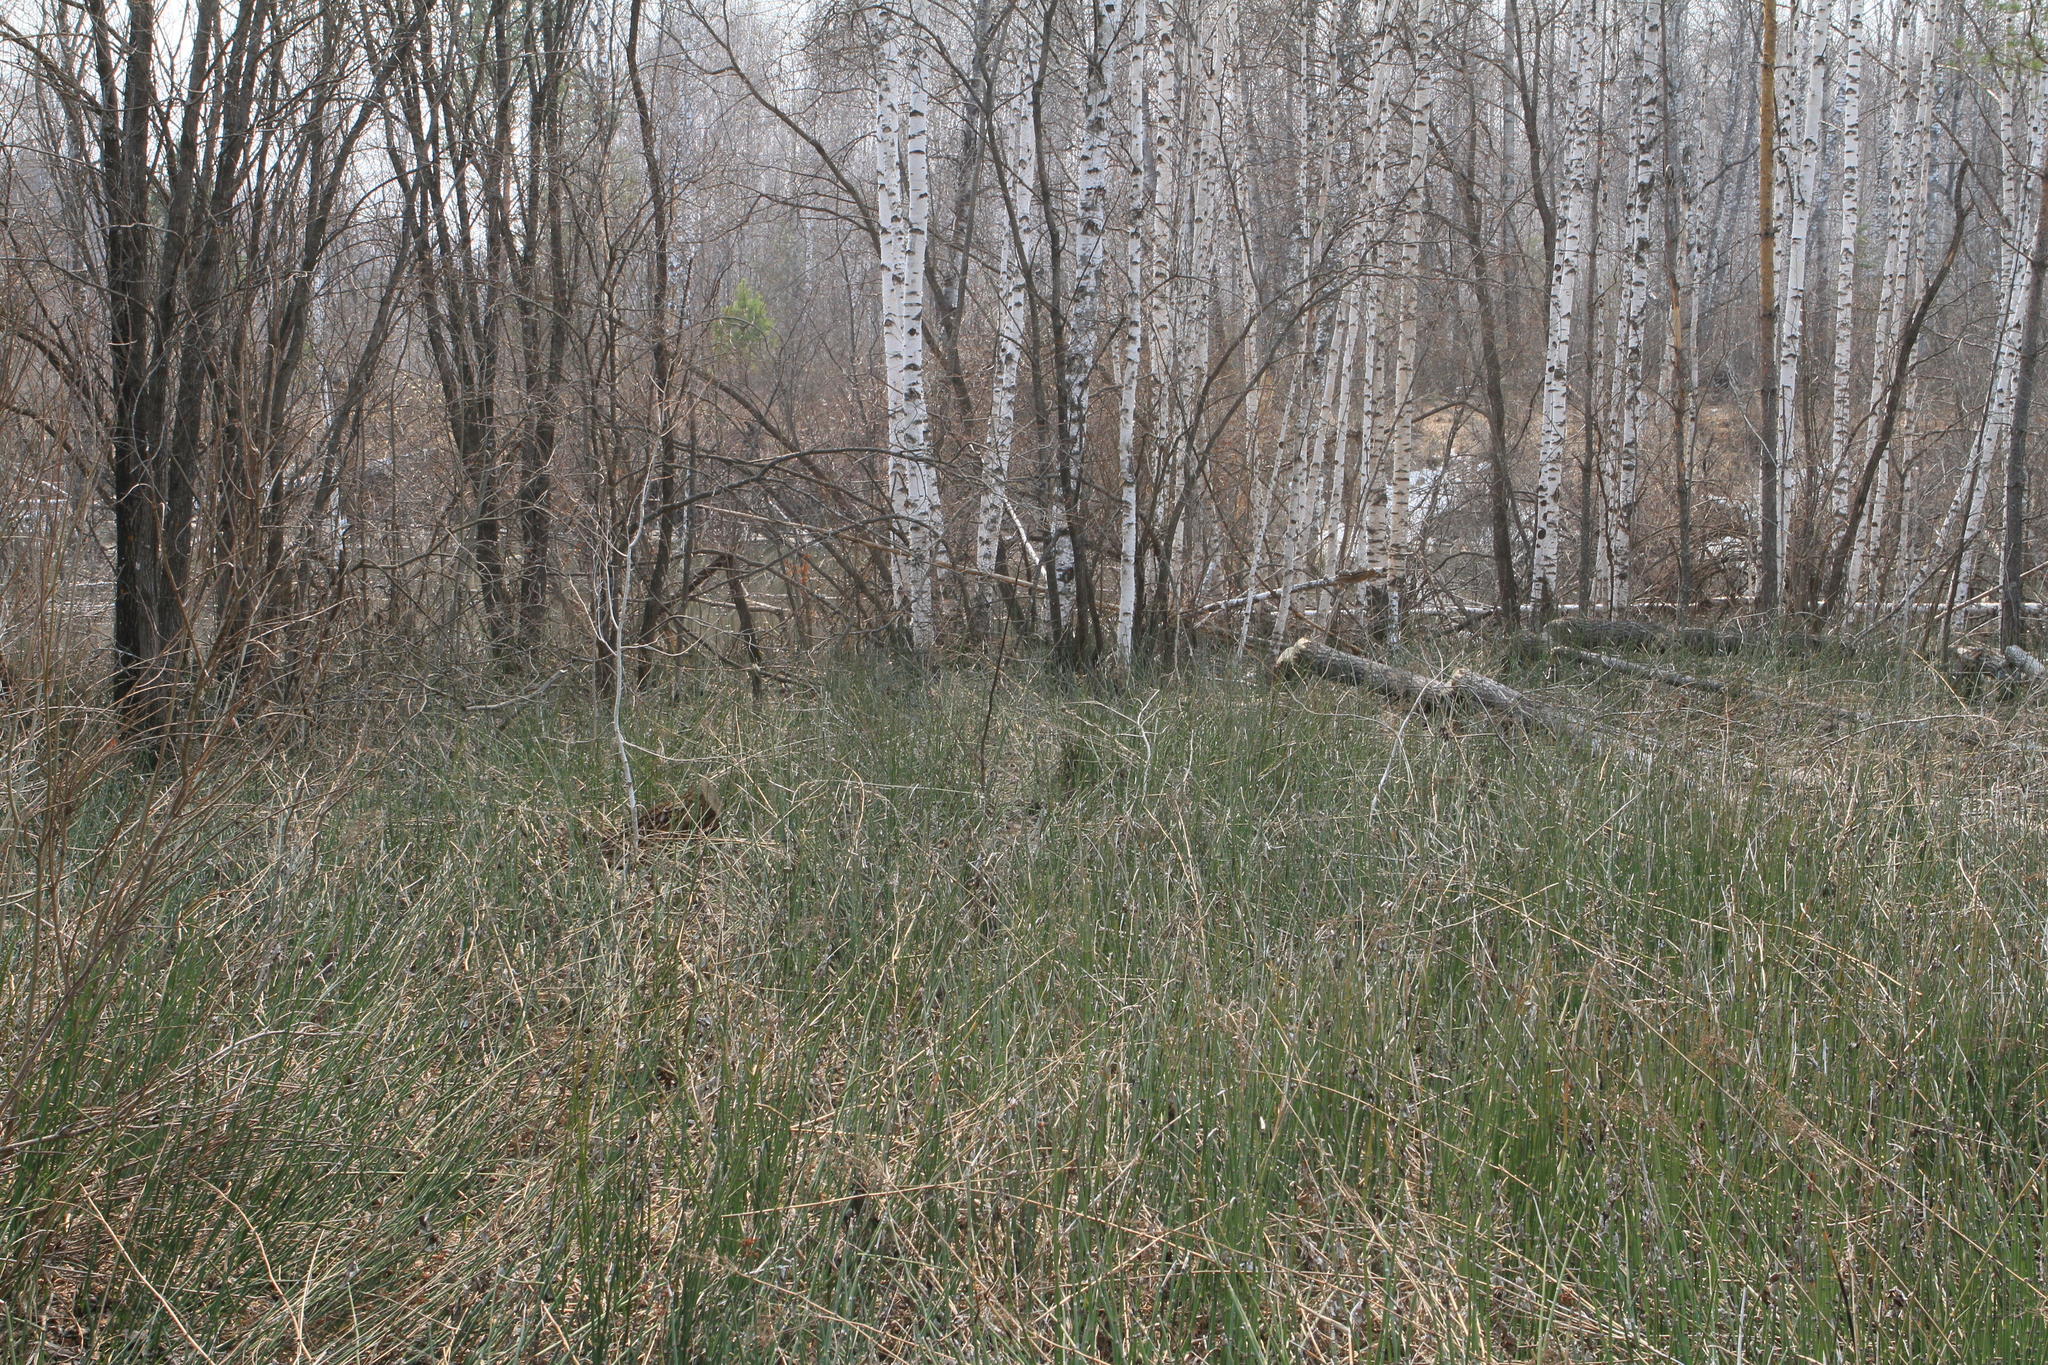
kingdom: Plantae
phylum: Tracheophyta
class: Polypodiopsida
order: Equisetales
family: Equisetaceae
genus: Equisetum
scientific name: Equisetum hyemale
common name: Rough horsetail
